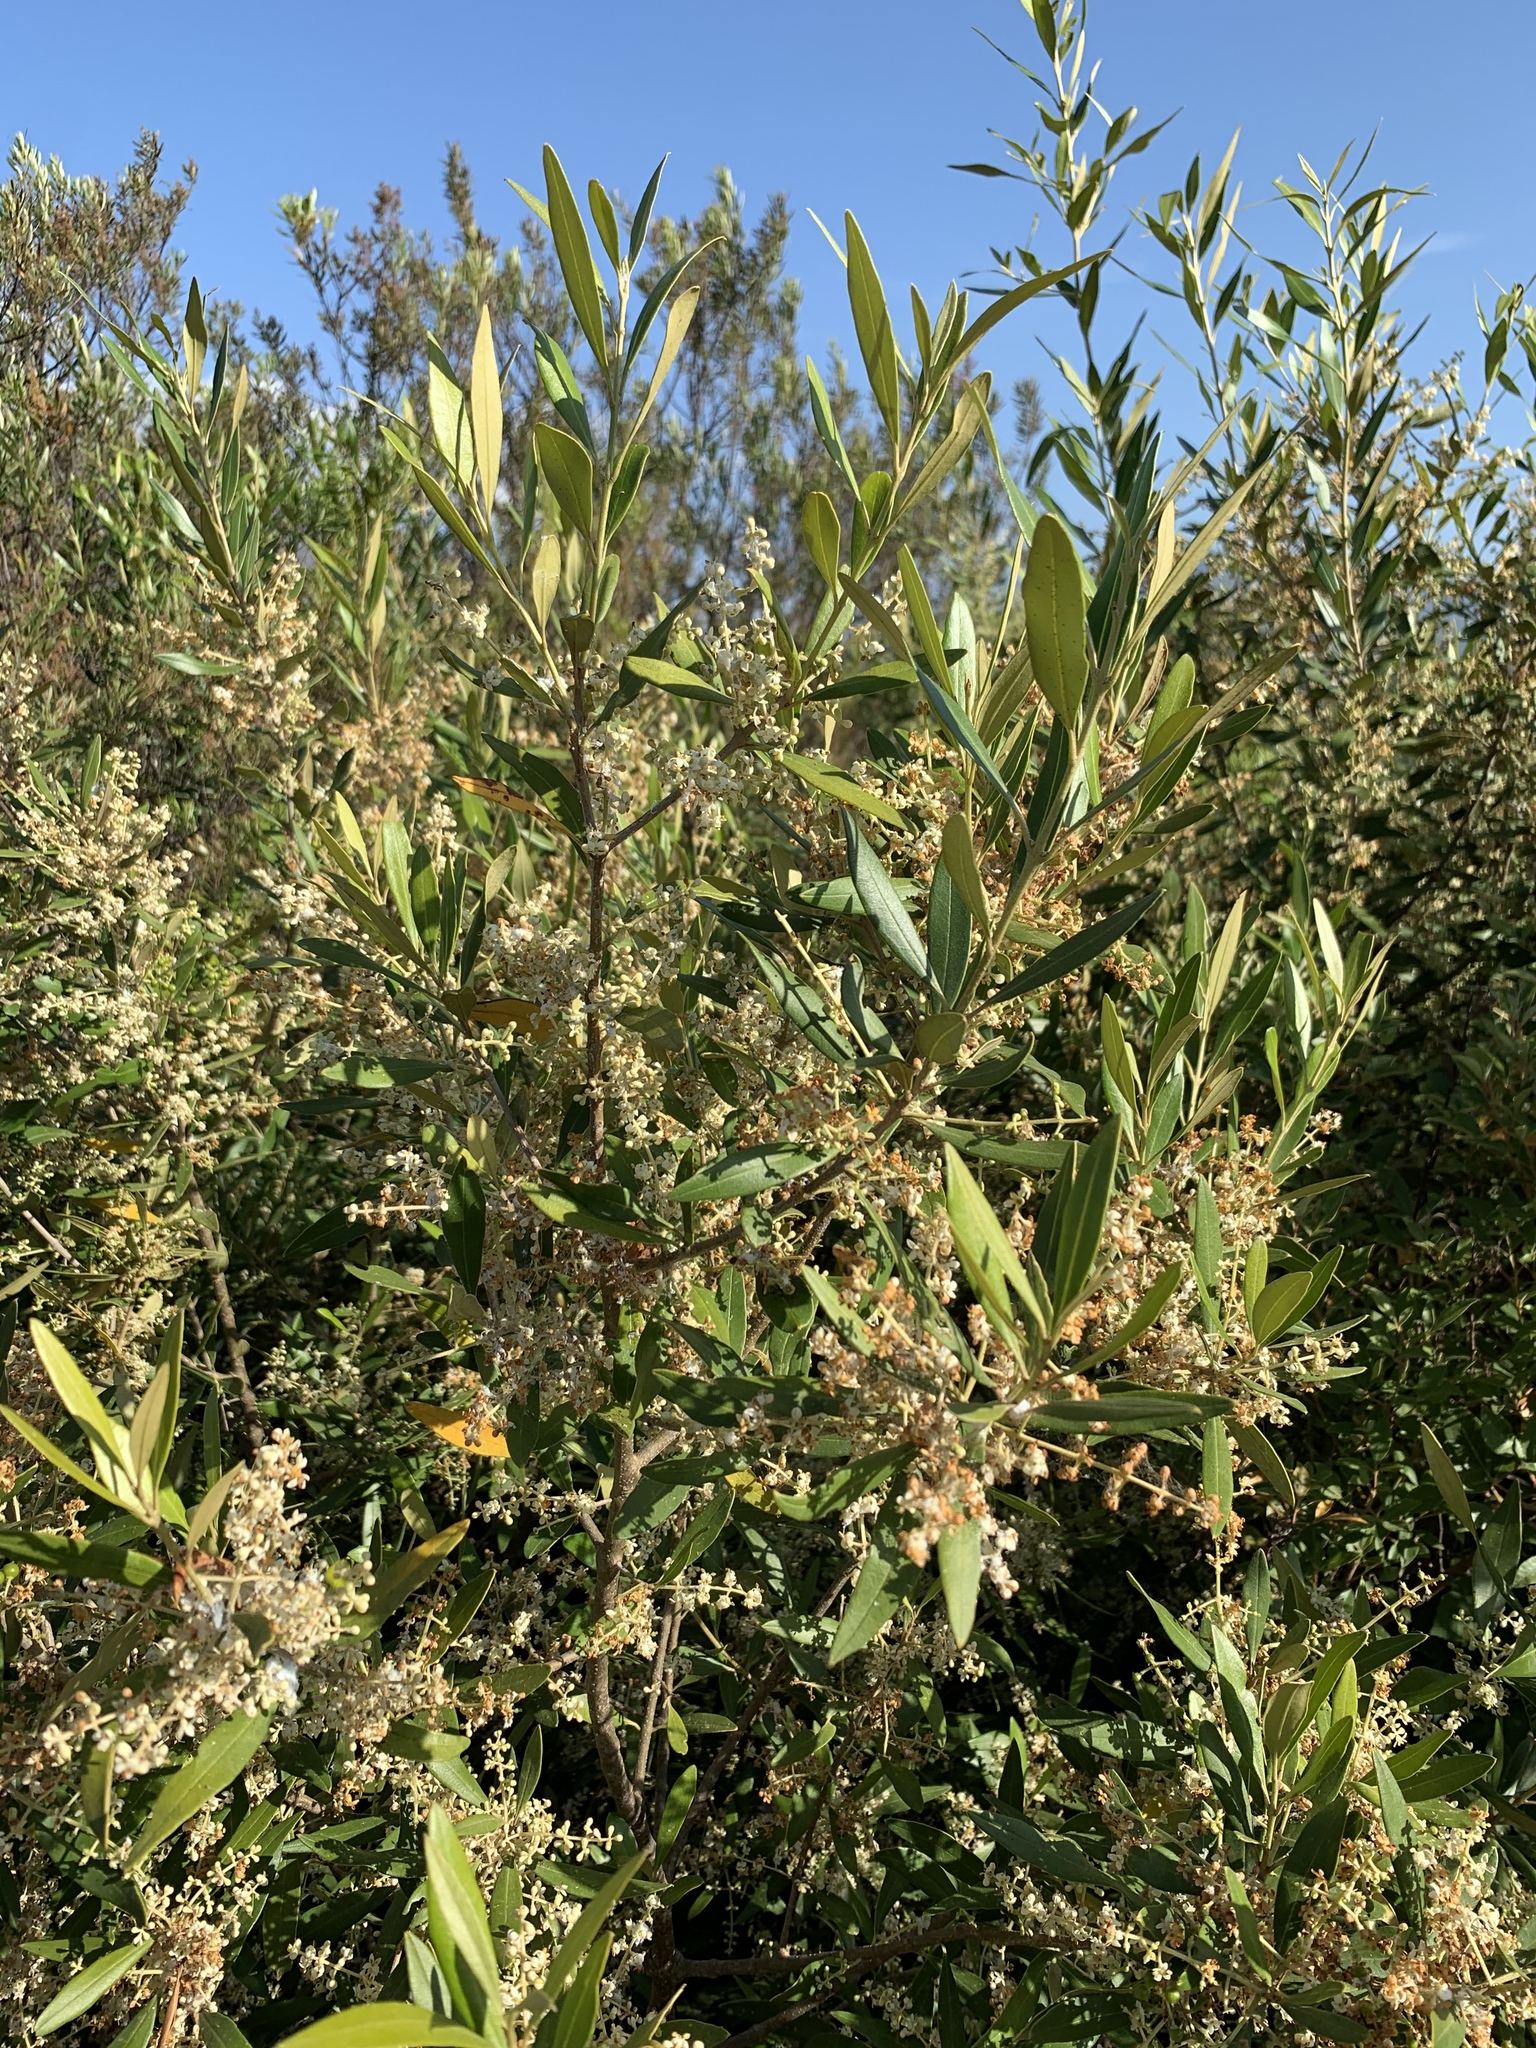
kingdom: Plantae
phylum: Tracheophyta
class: Magnoliopsida
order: Lamiales
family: Oleaceae
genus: Olea
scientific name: Olea europaea
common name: Olive
